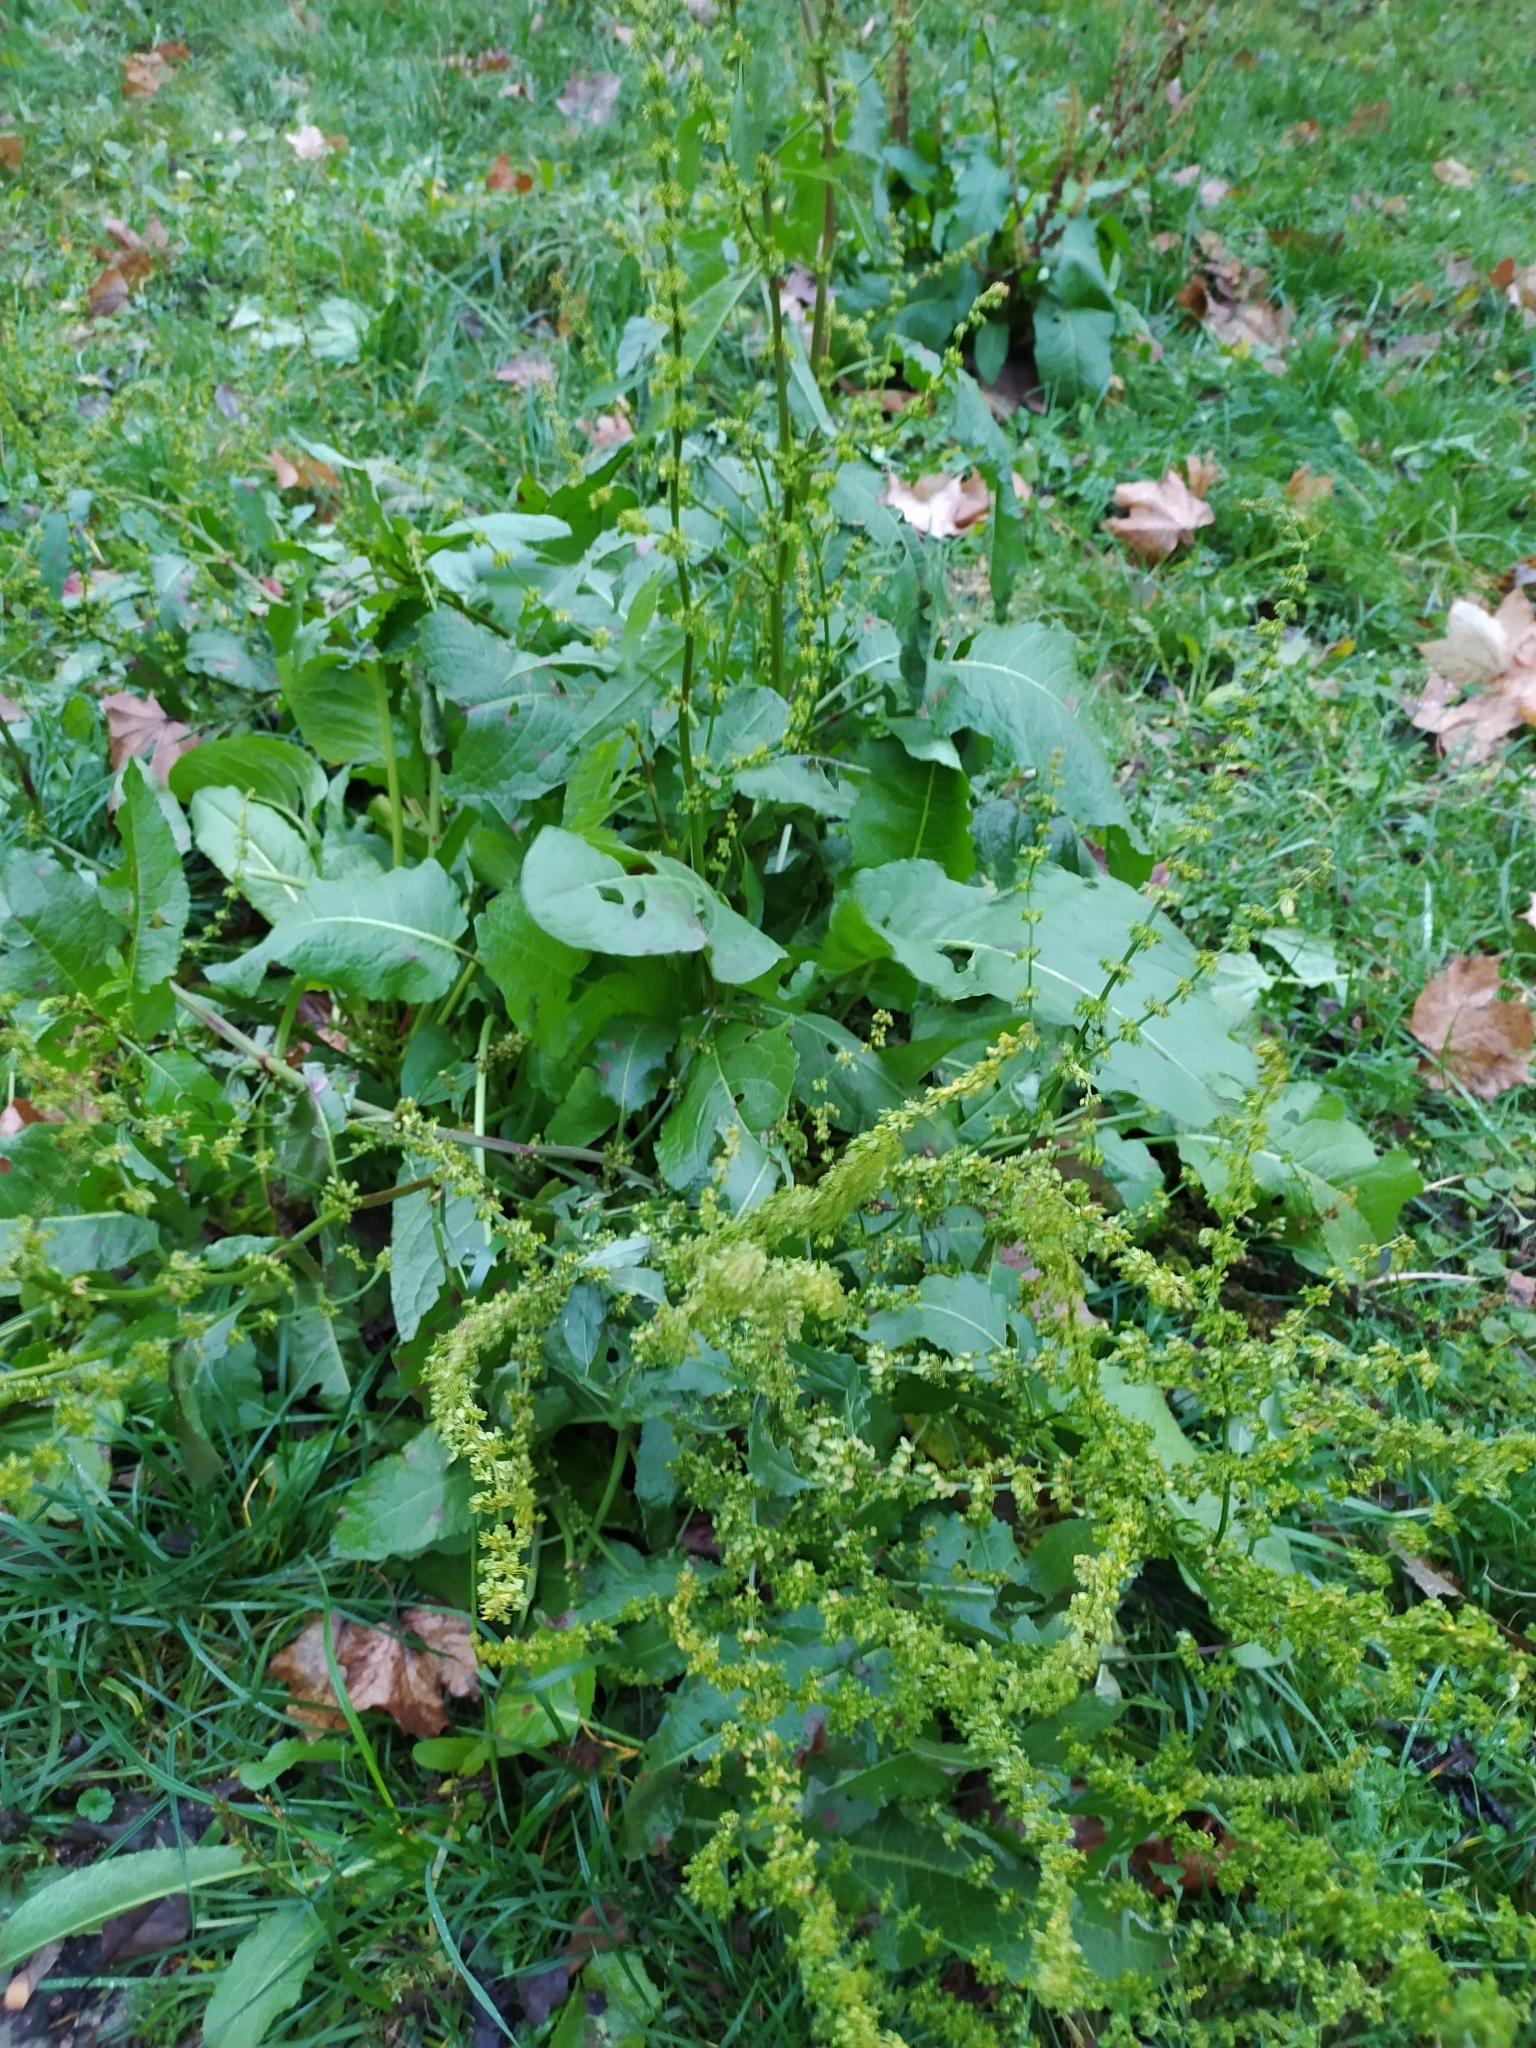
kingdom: Plantae
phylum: Tracheophyta
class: Magnoliopsida
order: Caryophyllales
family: Polygonaceae
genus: Rumex
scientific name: Rumex obtusifolius
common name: Bitter dock
